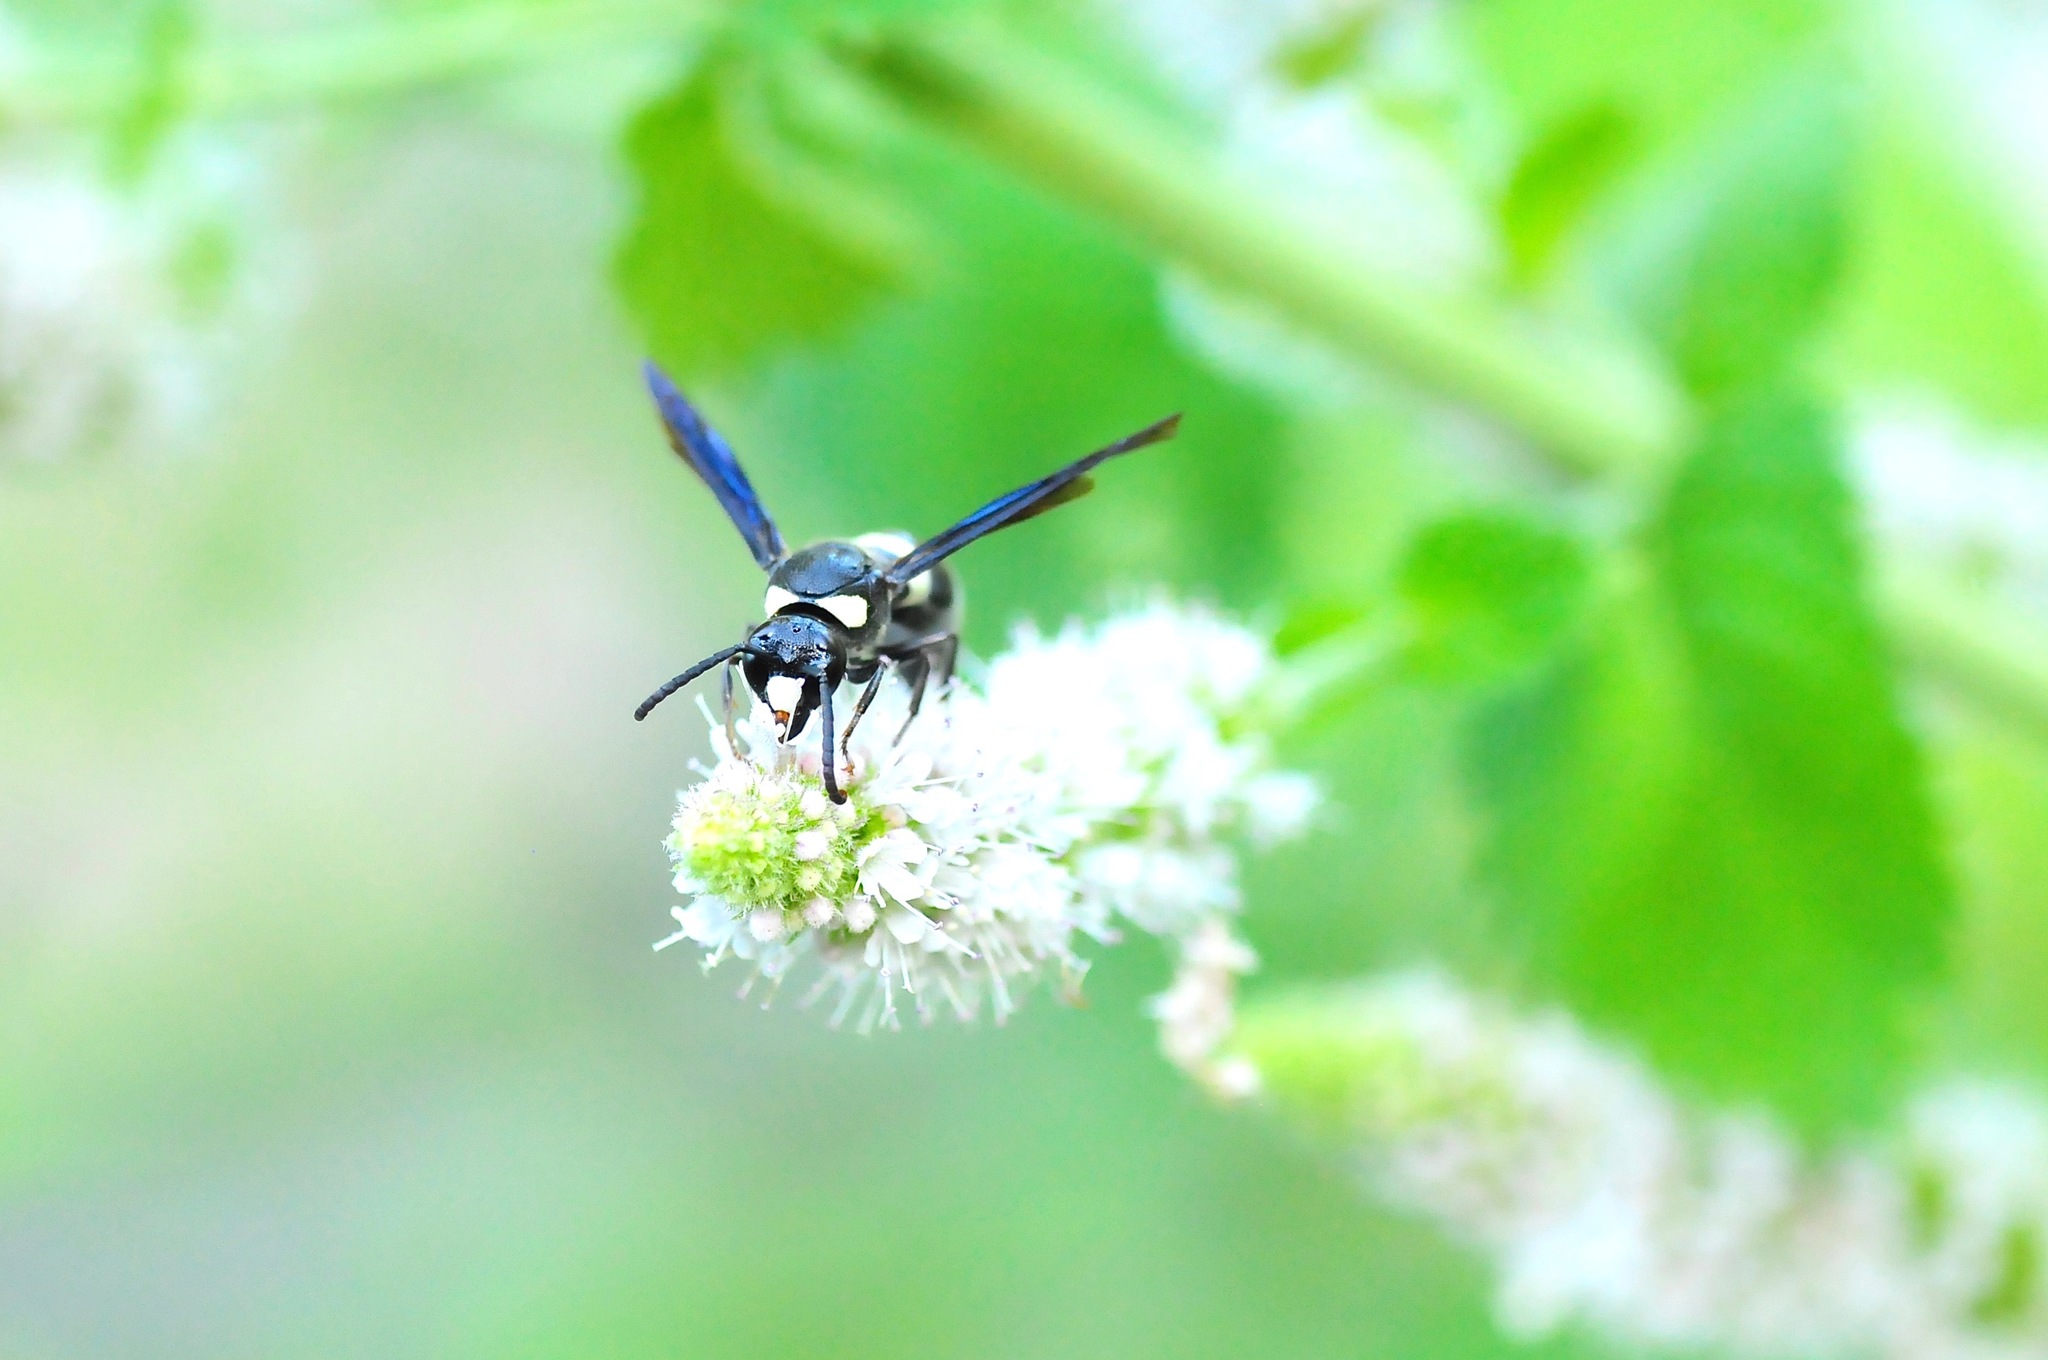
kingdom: Animalia
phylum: Arthropoda
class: Insecta
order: Hymenoptera
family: Eumenidae
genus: Monobia
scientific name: Monobia quadridens
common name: Four-toothed mason wasp
